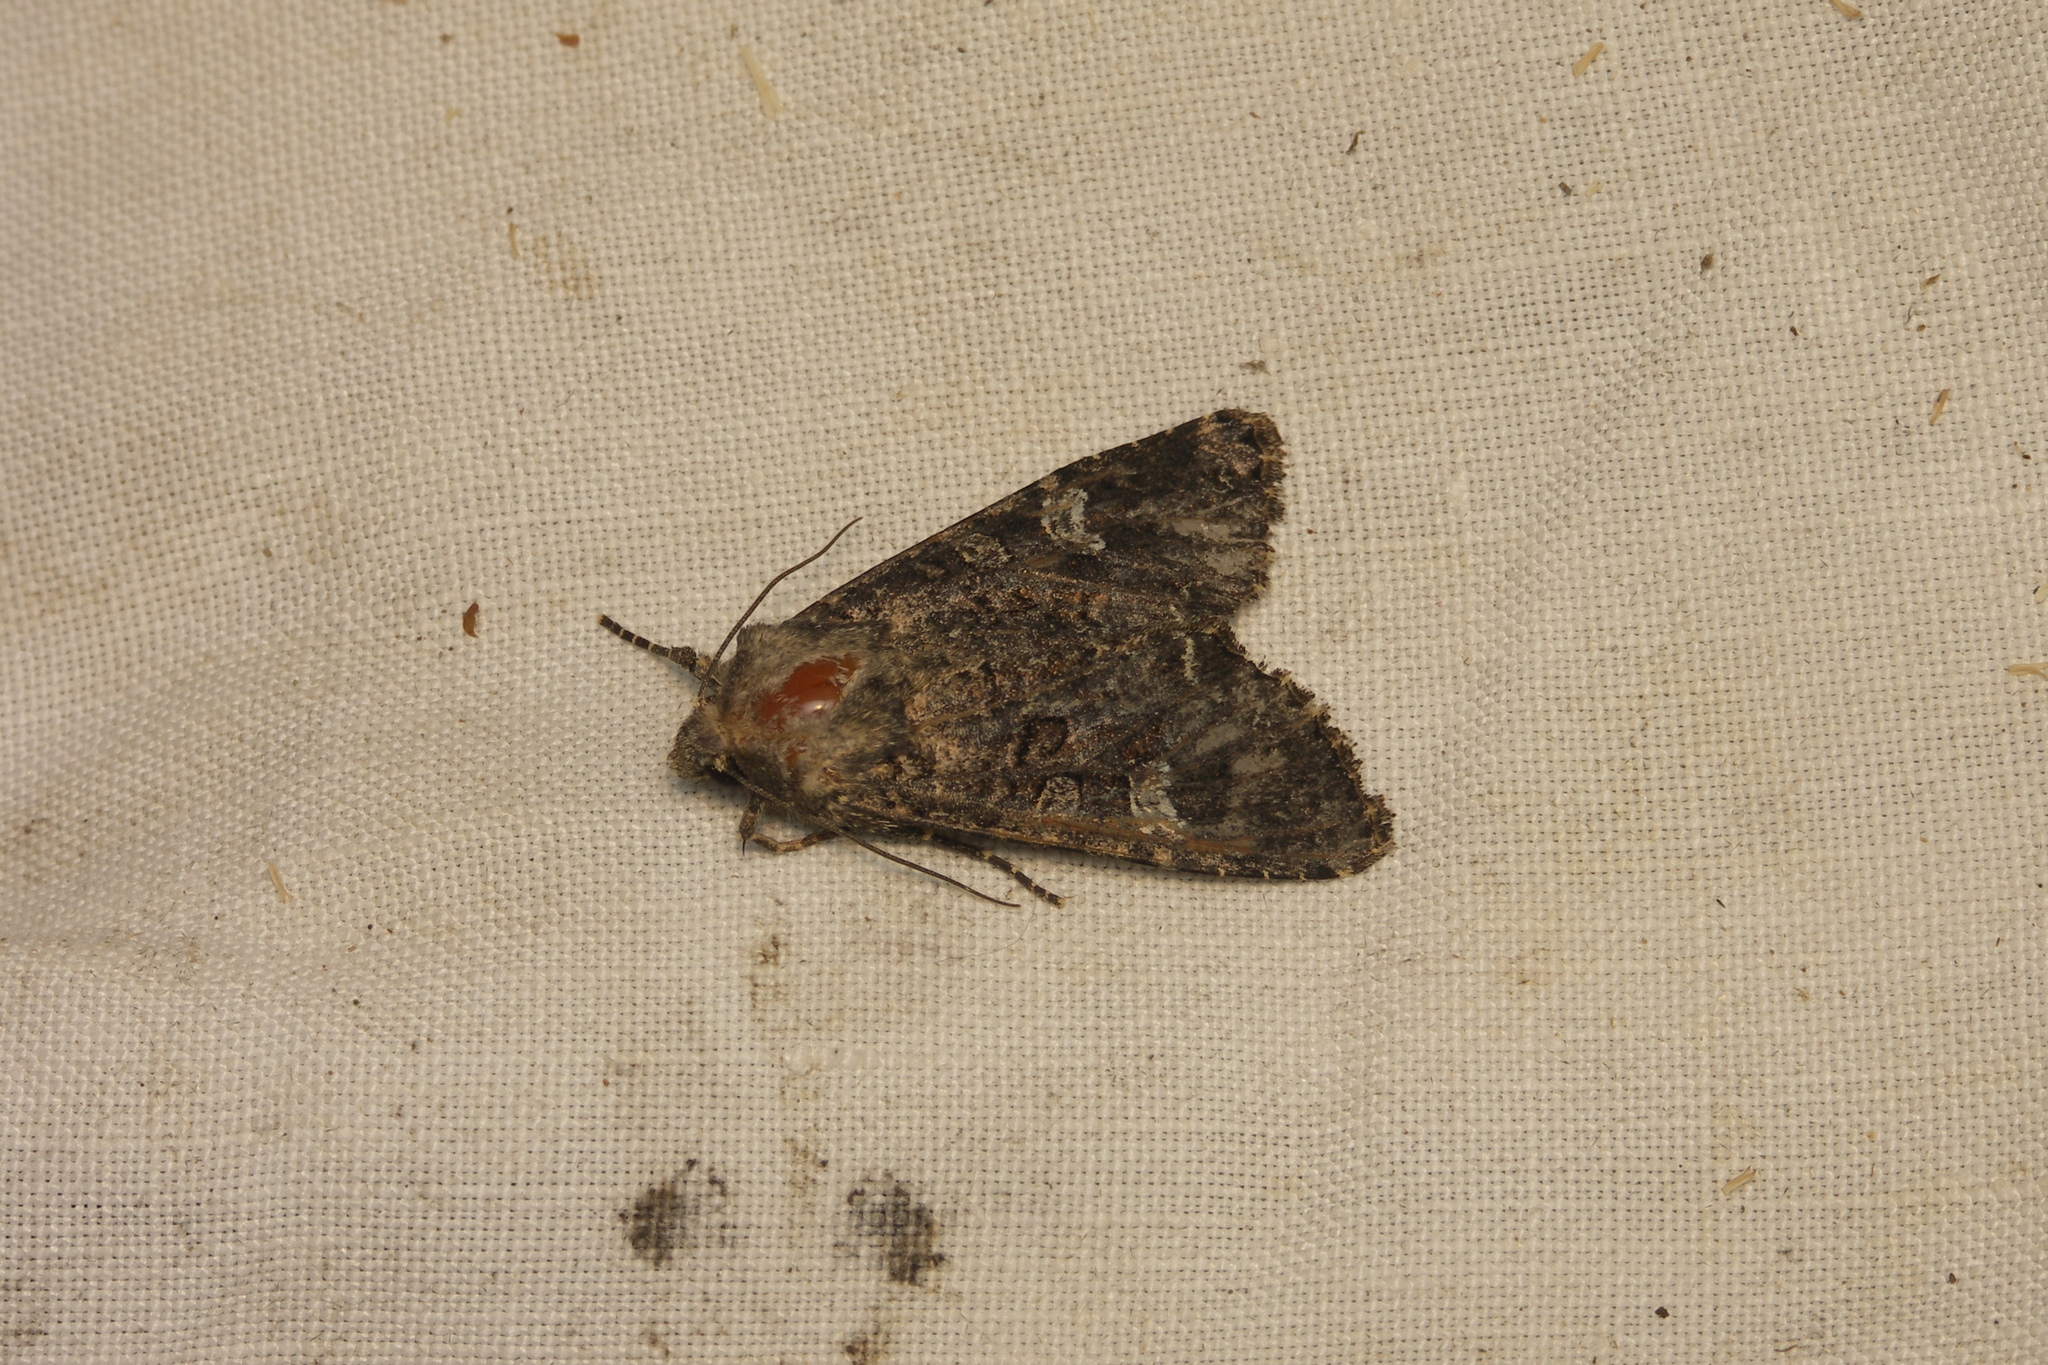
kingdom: Animalia
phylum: Arthropoda
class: Insecta
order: Lepidoptera
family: Noctuidae
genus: Mamestra
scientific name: Mamestra brassicae
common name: Cabbage moth
